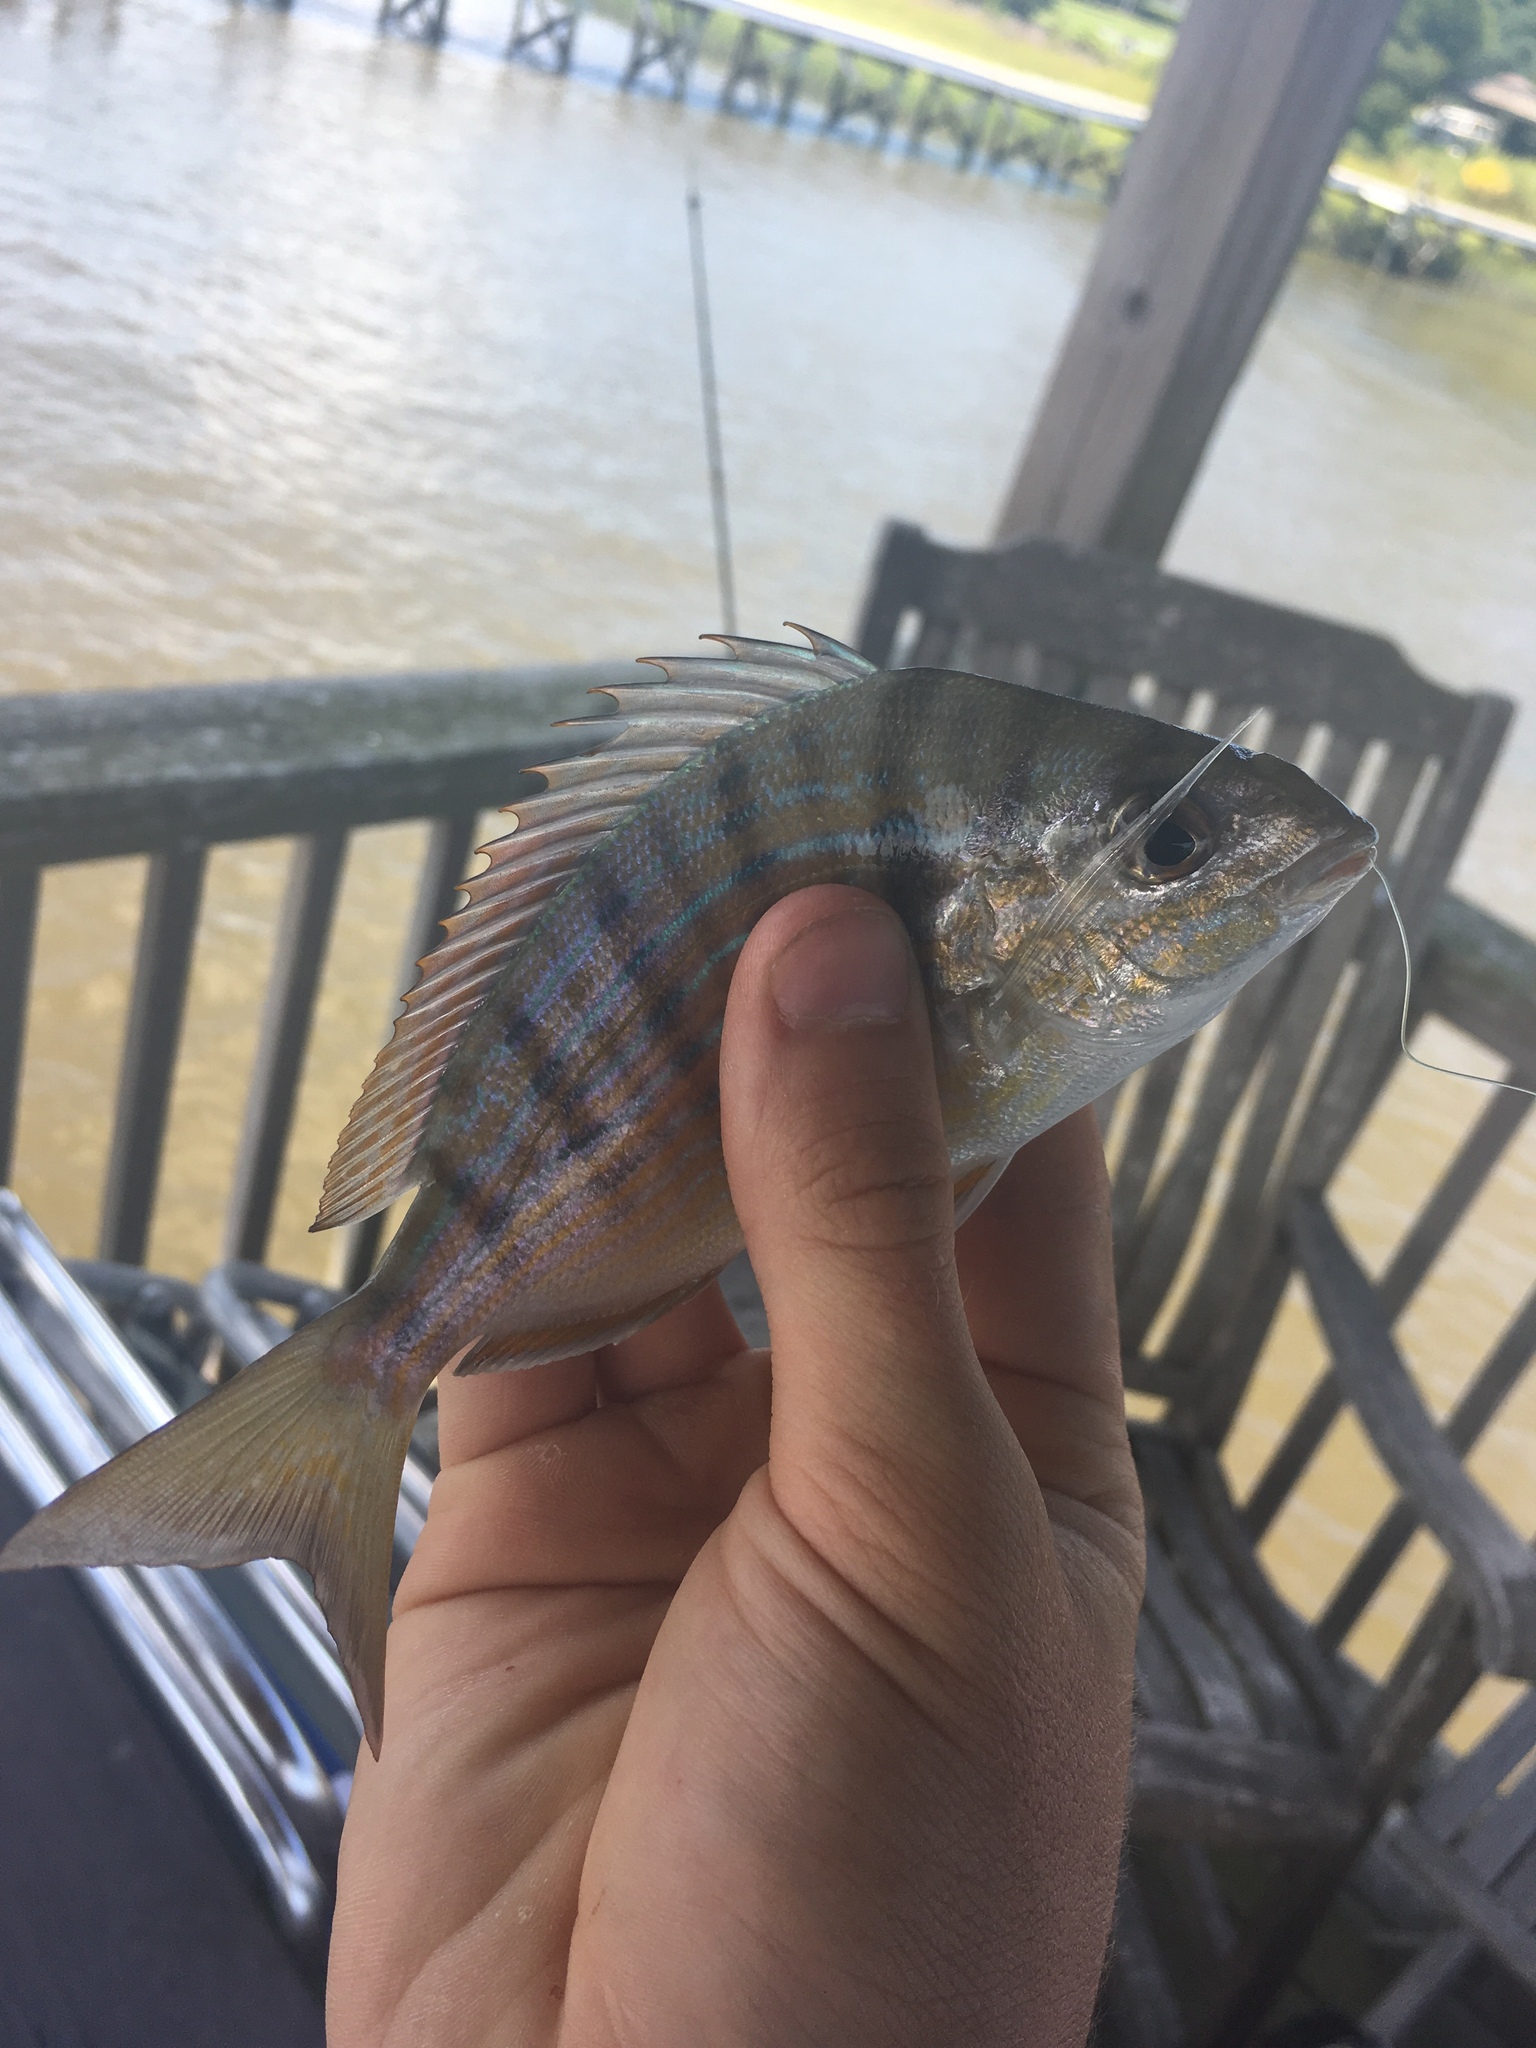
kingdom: Animalia
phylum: Chordata
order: Perciformes
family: Sparidae
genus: Lagodon
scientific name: Lagodon rhomboides
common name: Pinfish
